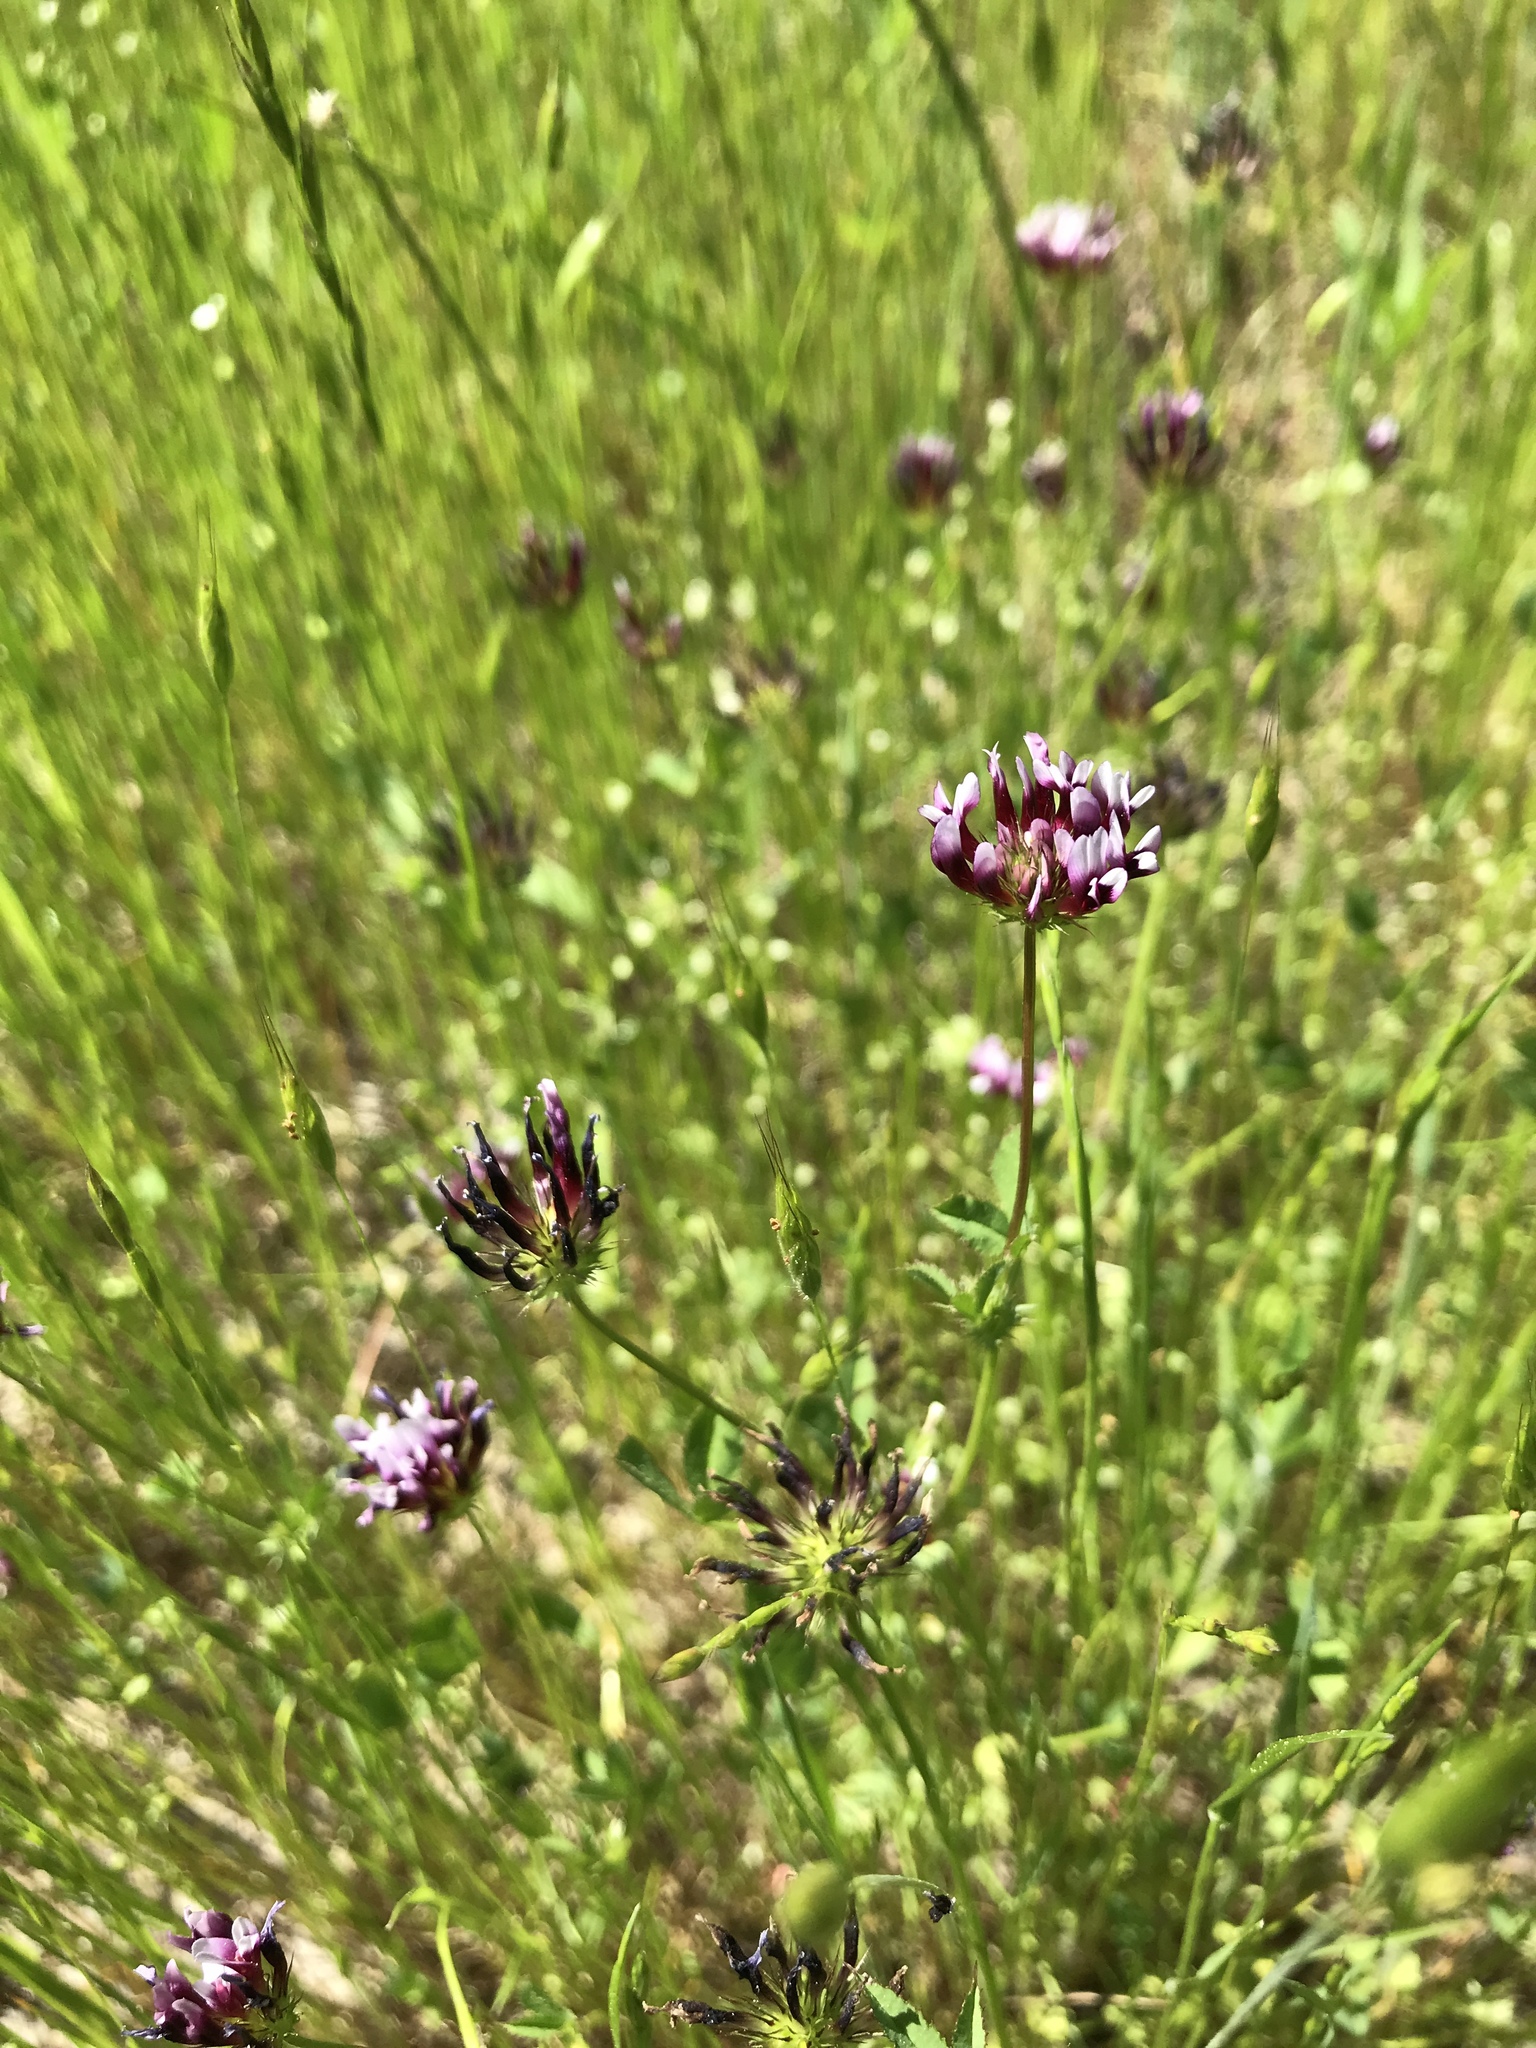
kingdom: Plantae
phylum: Tracheophyta
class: Magnoliopsida
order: Fabales
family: Fabaceae
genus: Trifolium
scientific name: Trifolium variegatum
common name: Whitetip clover
